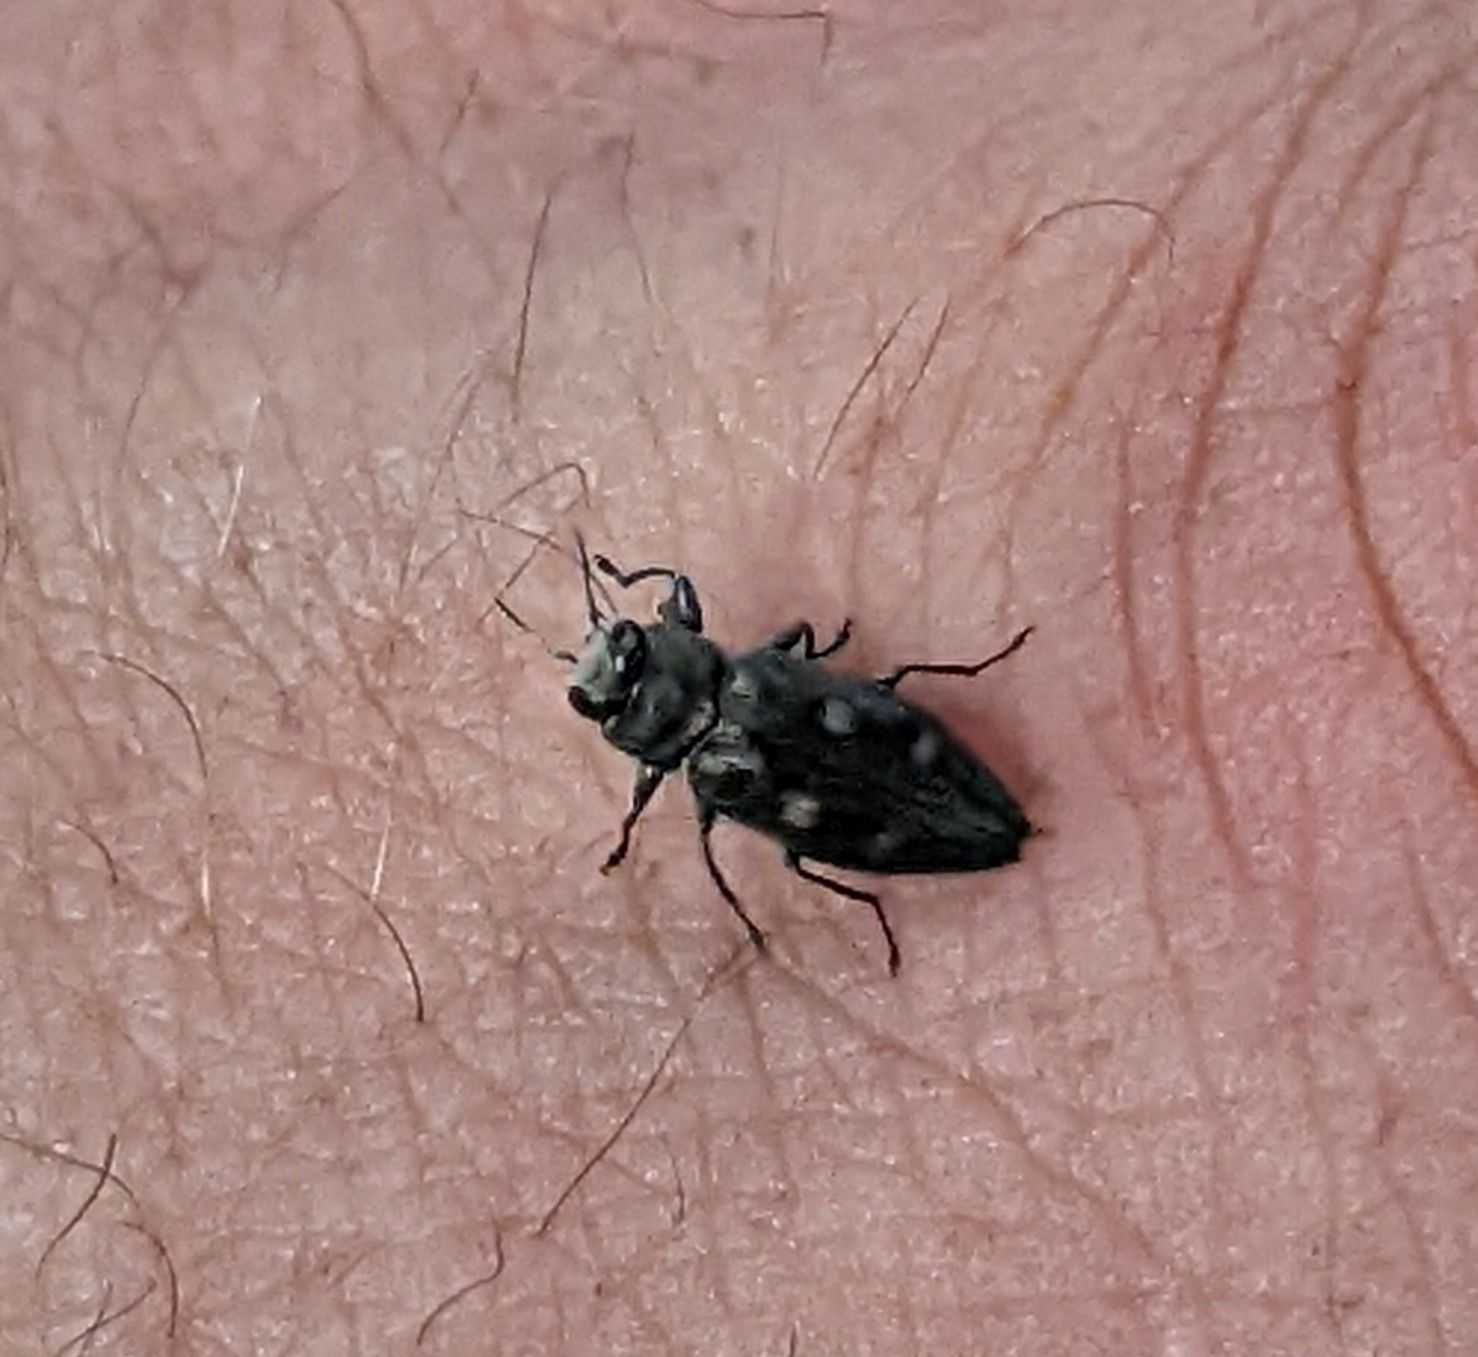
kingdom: Animalia
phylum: Arthropoda
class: Insecta
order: Coleoptera
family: Buprestidae
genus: Chrysobothris
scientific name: Chrysobothris sexsignata
